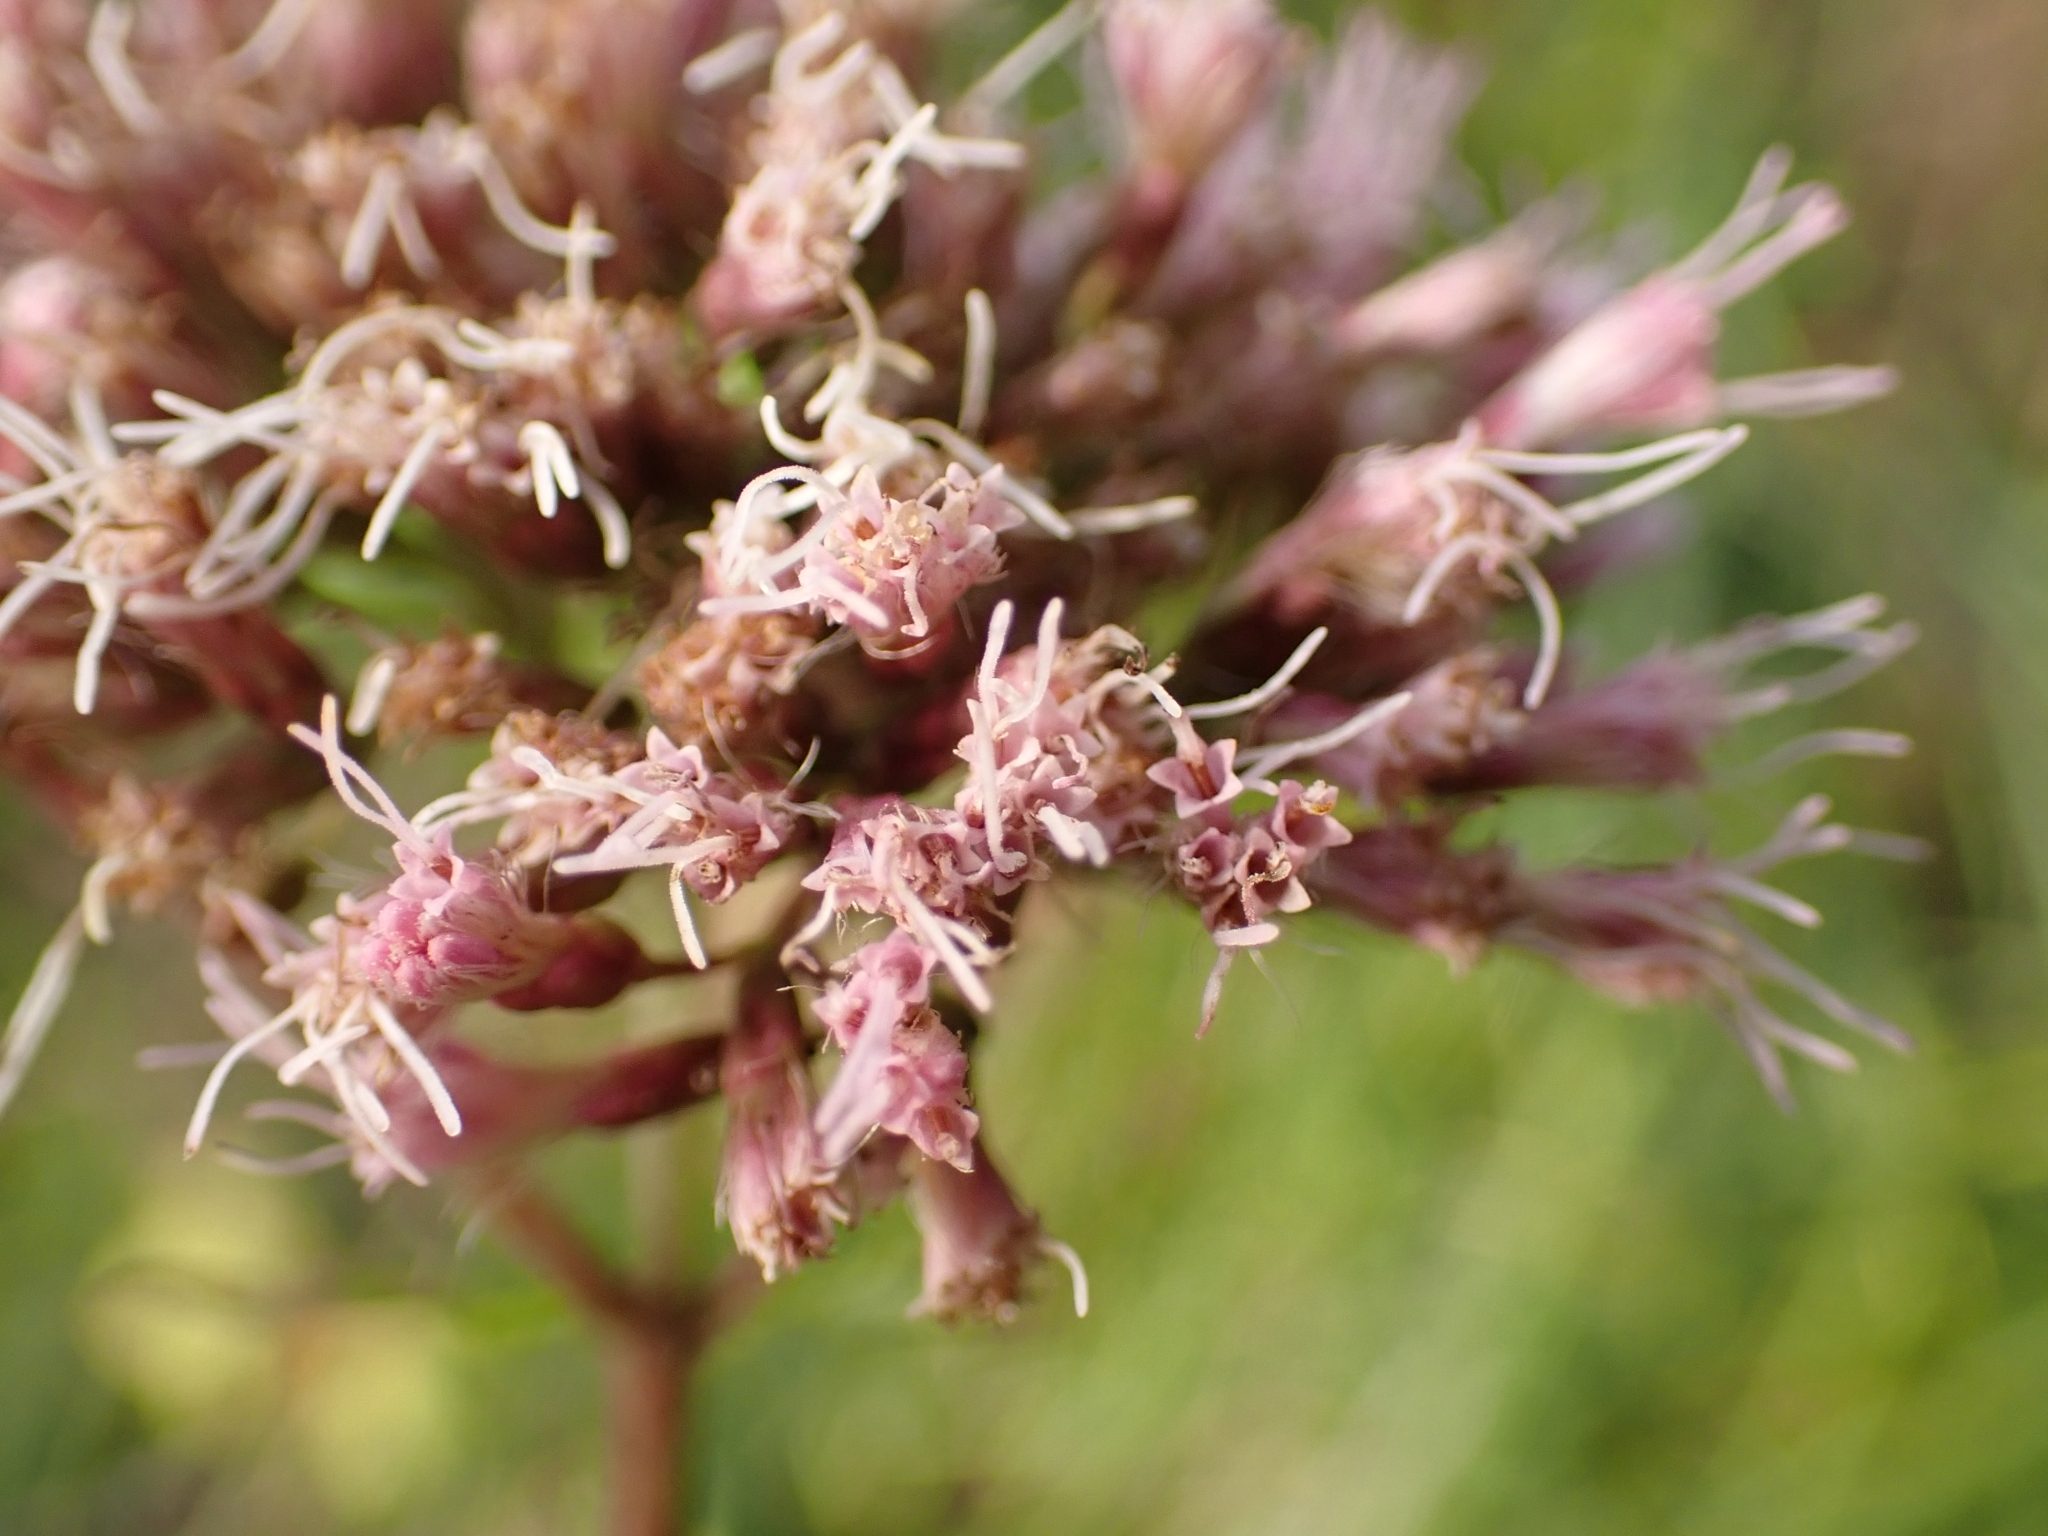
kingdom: Plantae
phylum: Tracheophyta
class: Magnoliopsida
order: Asterales
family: Asteraceae
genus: Eupatorium
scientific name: Eupatorium cannabinum
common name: Hemp-agrimony
